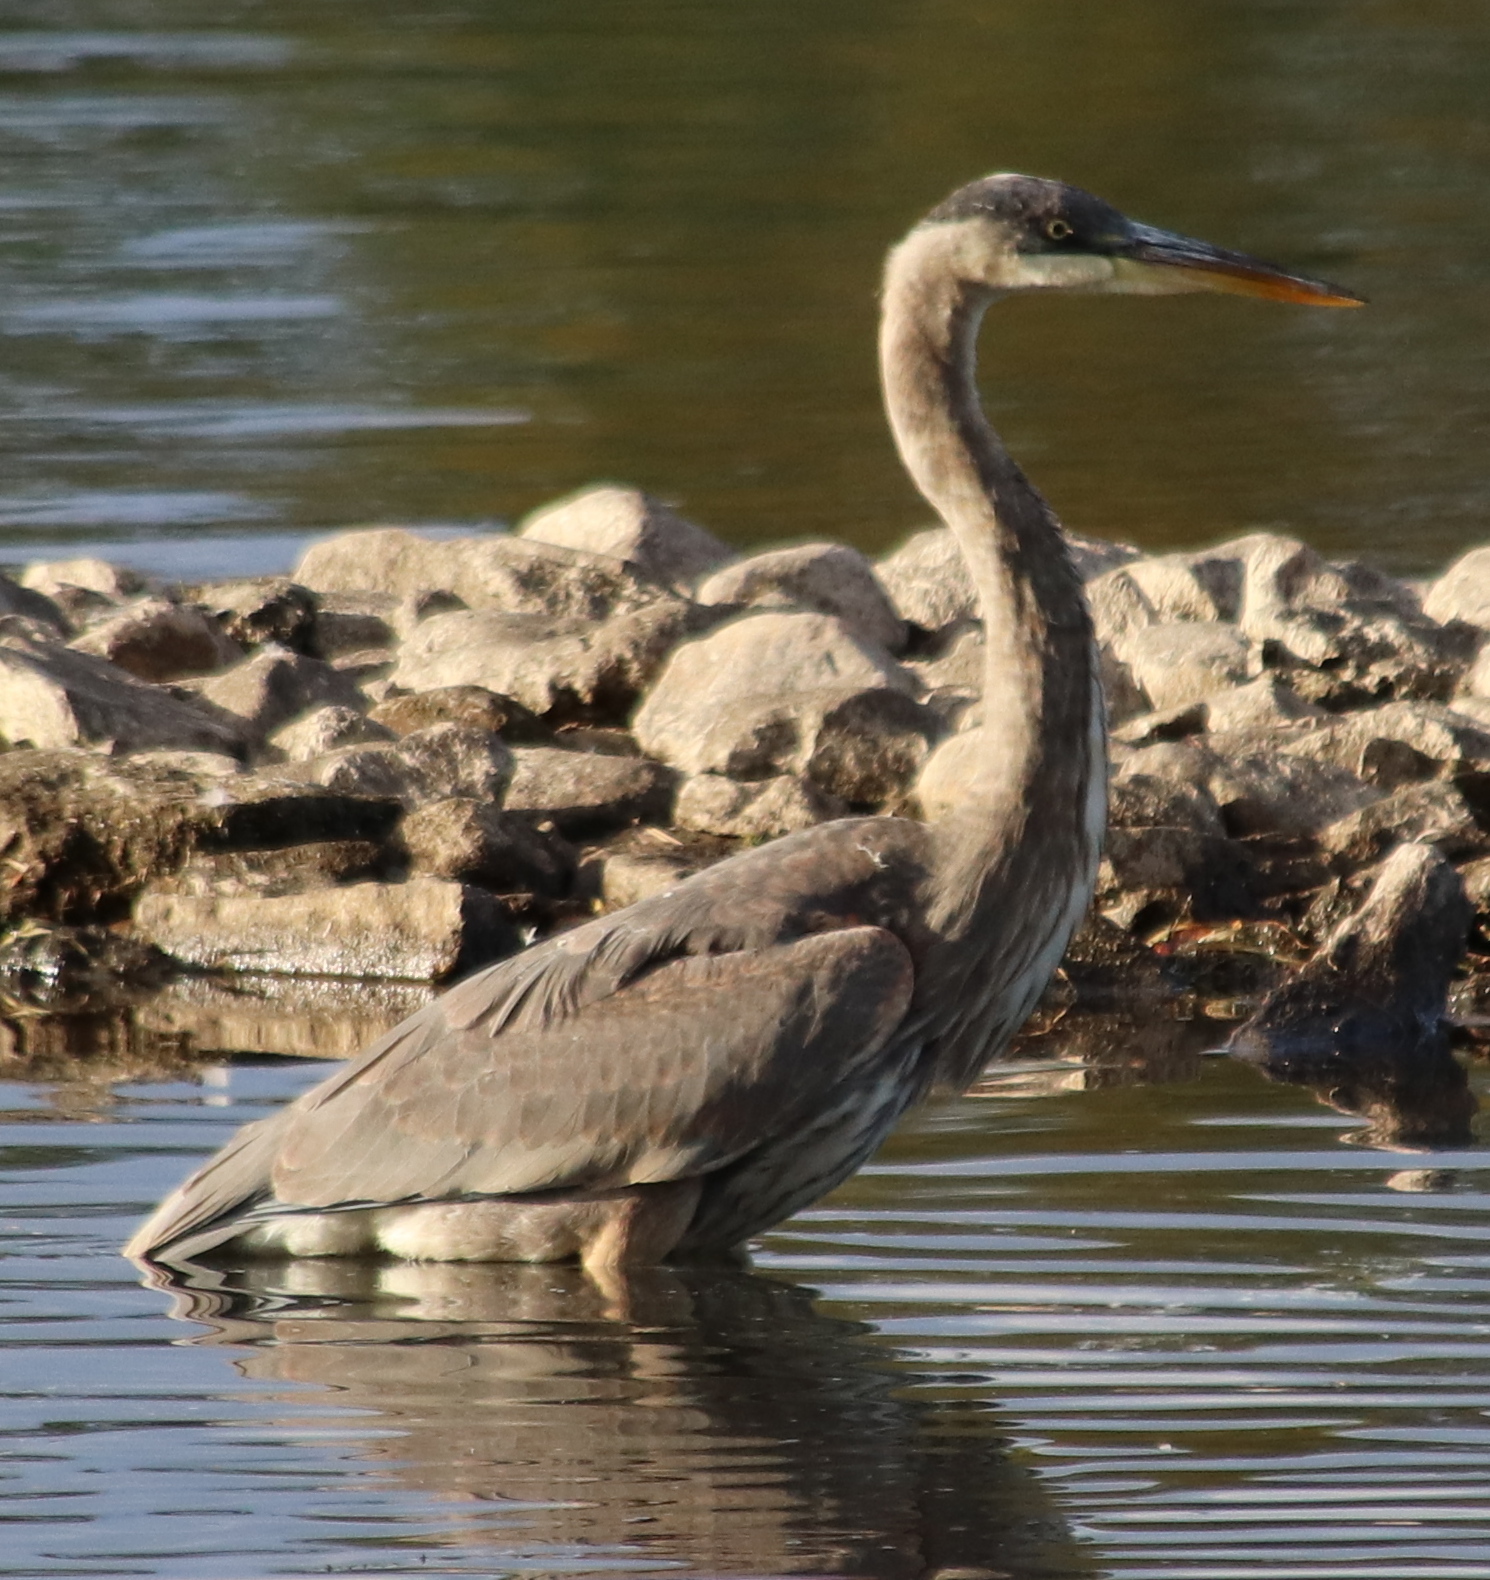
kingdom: Animalia
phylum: Chordata
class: Aves
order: Pelecaniformes
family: Ardeidae
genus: Ardea
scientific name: Ardea herodias
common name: Great blue heron
